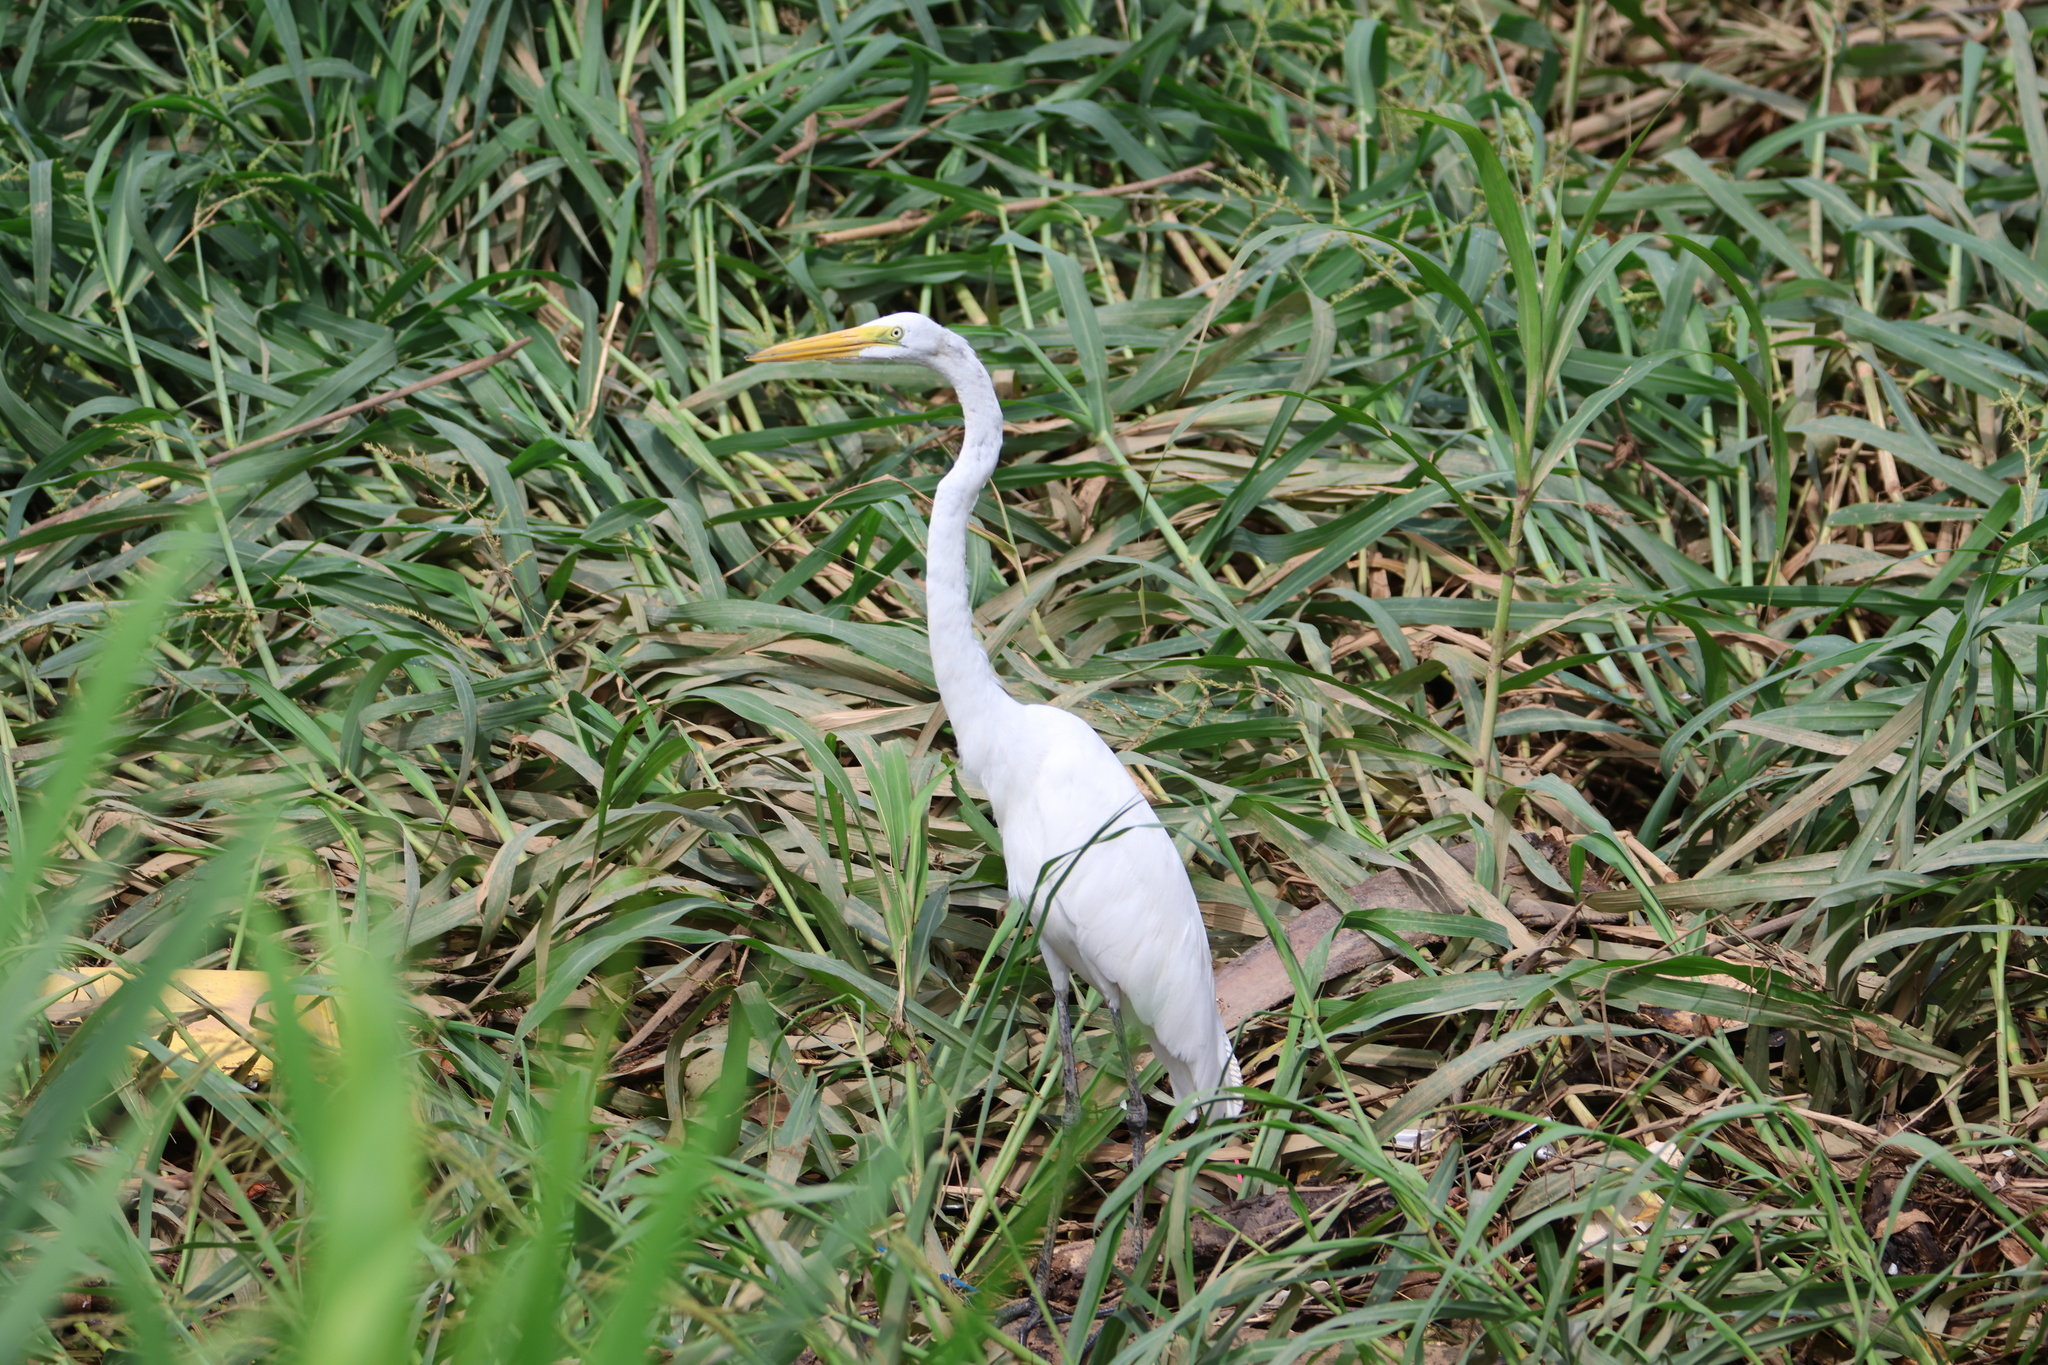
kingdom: Animalia
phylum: Chordata
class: Aves
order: Pelecaniformes
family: Ardeidae
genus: Ardea
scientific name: Ardea alba
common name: Great egret
